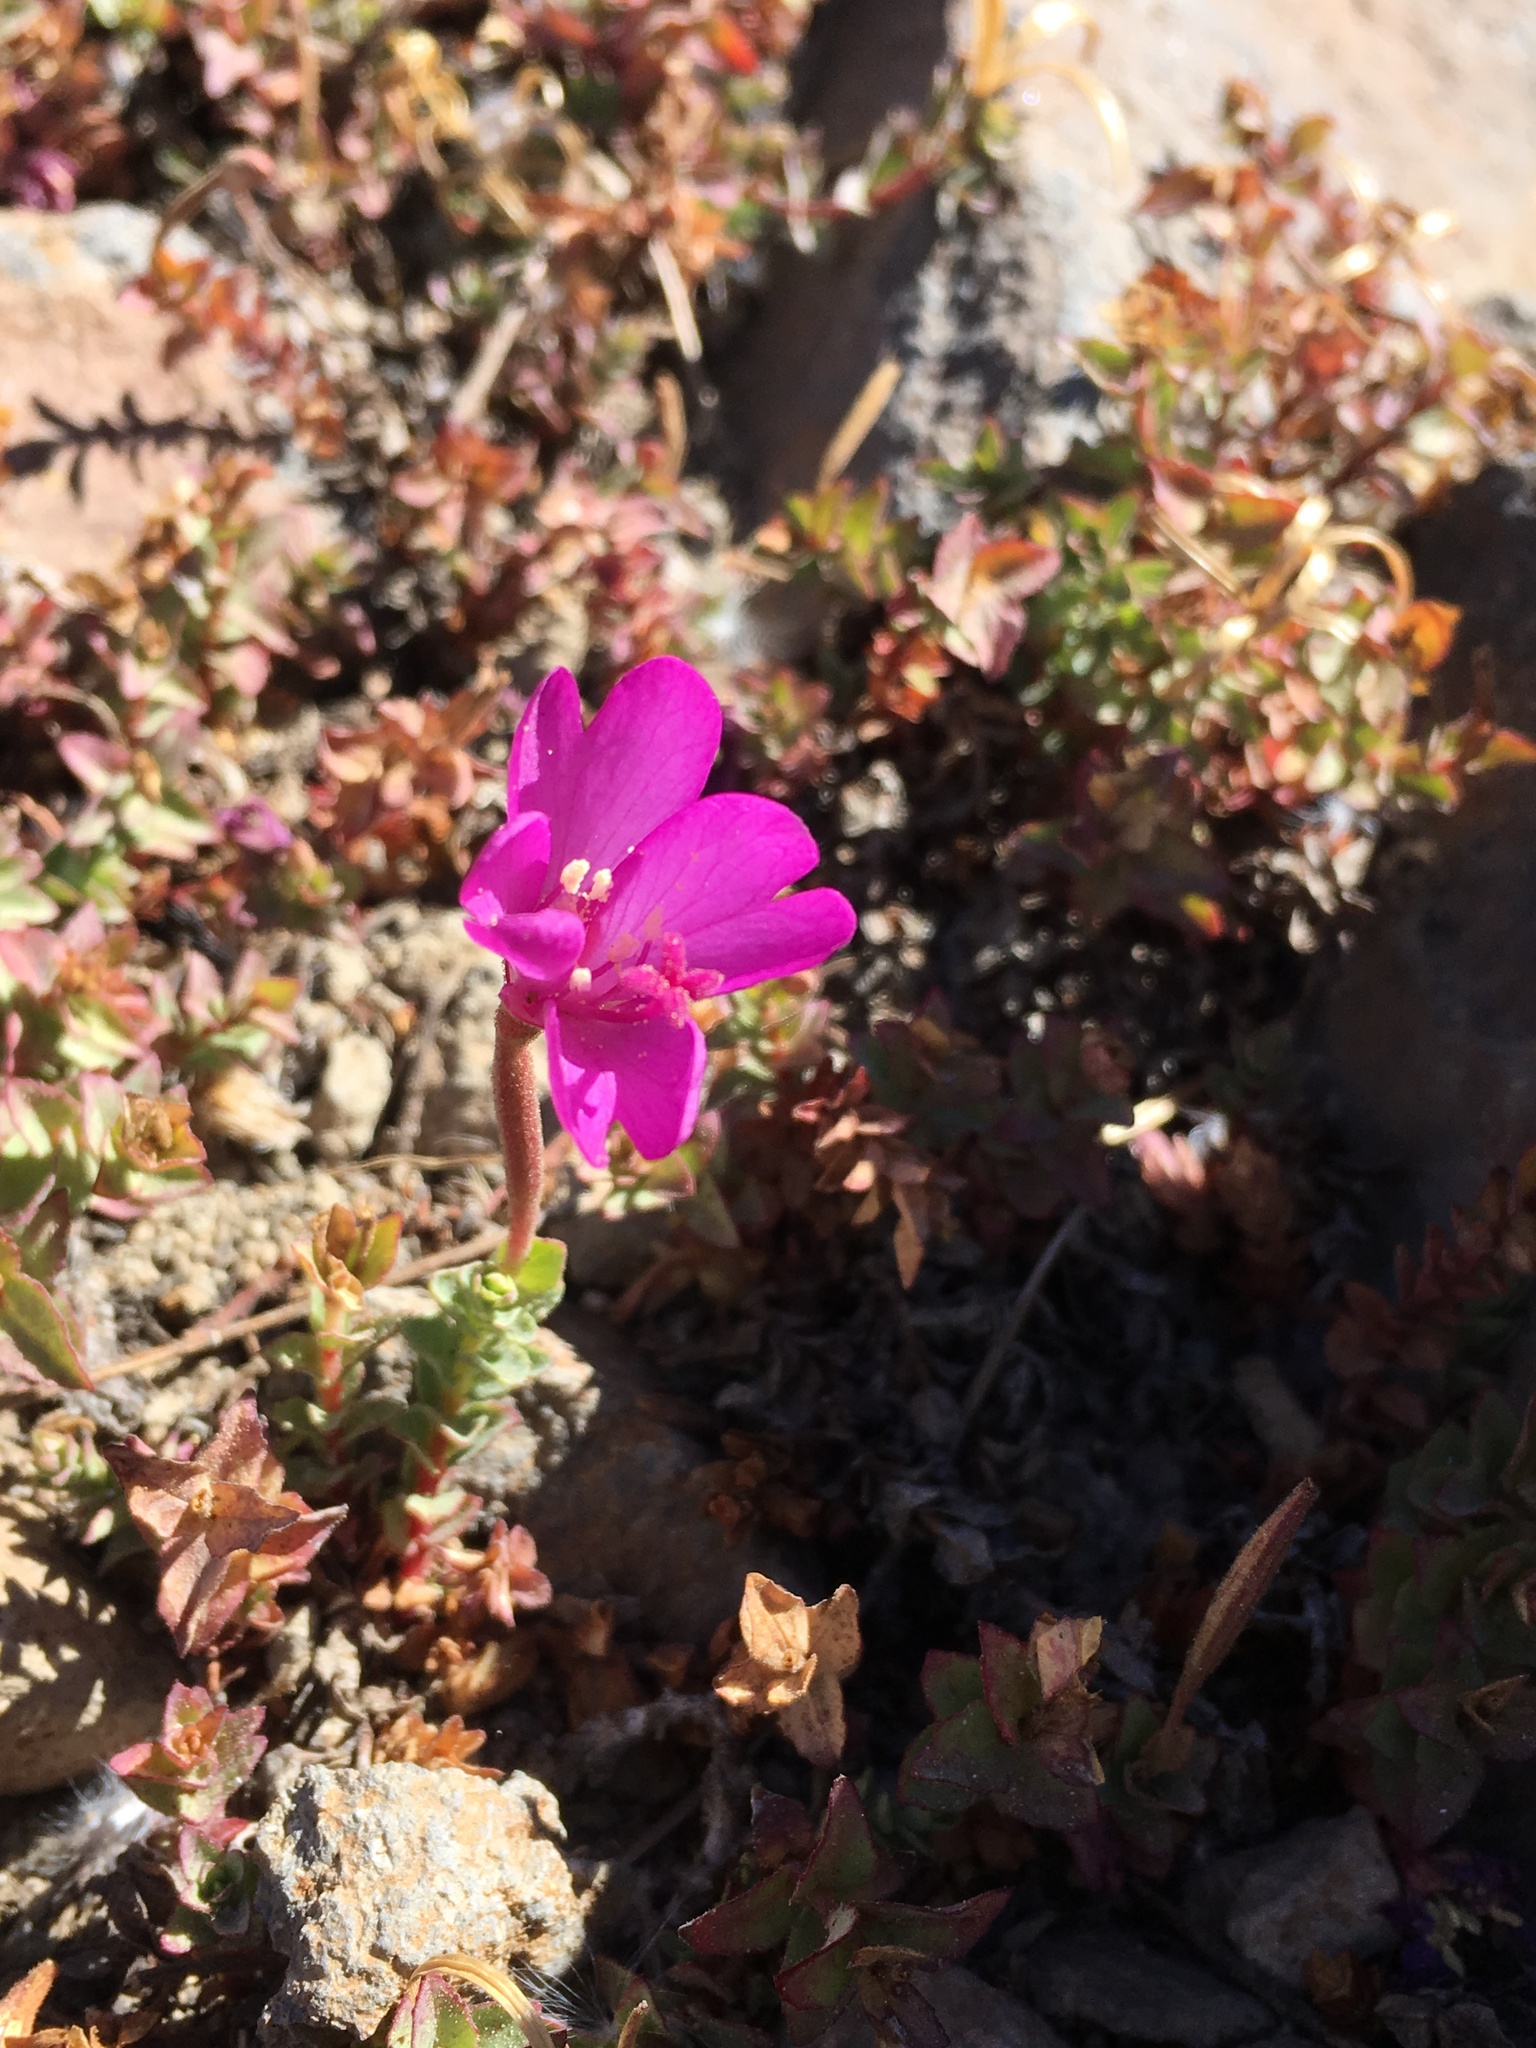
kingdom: Plantae
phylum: Tracheophyta
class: Magnoliopsida
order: Myrtales
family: Onagraceae
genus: Epilobium
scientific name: Epilobium obcordatum
